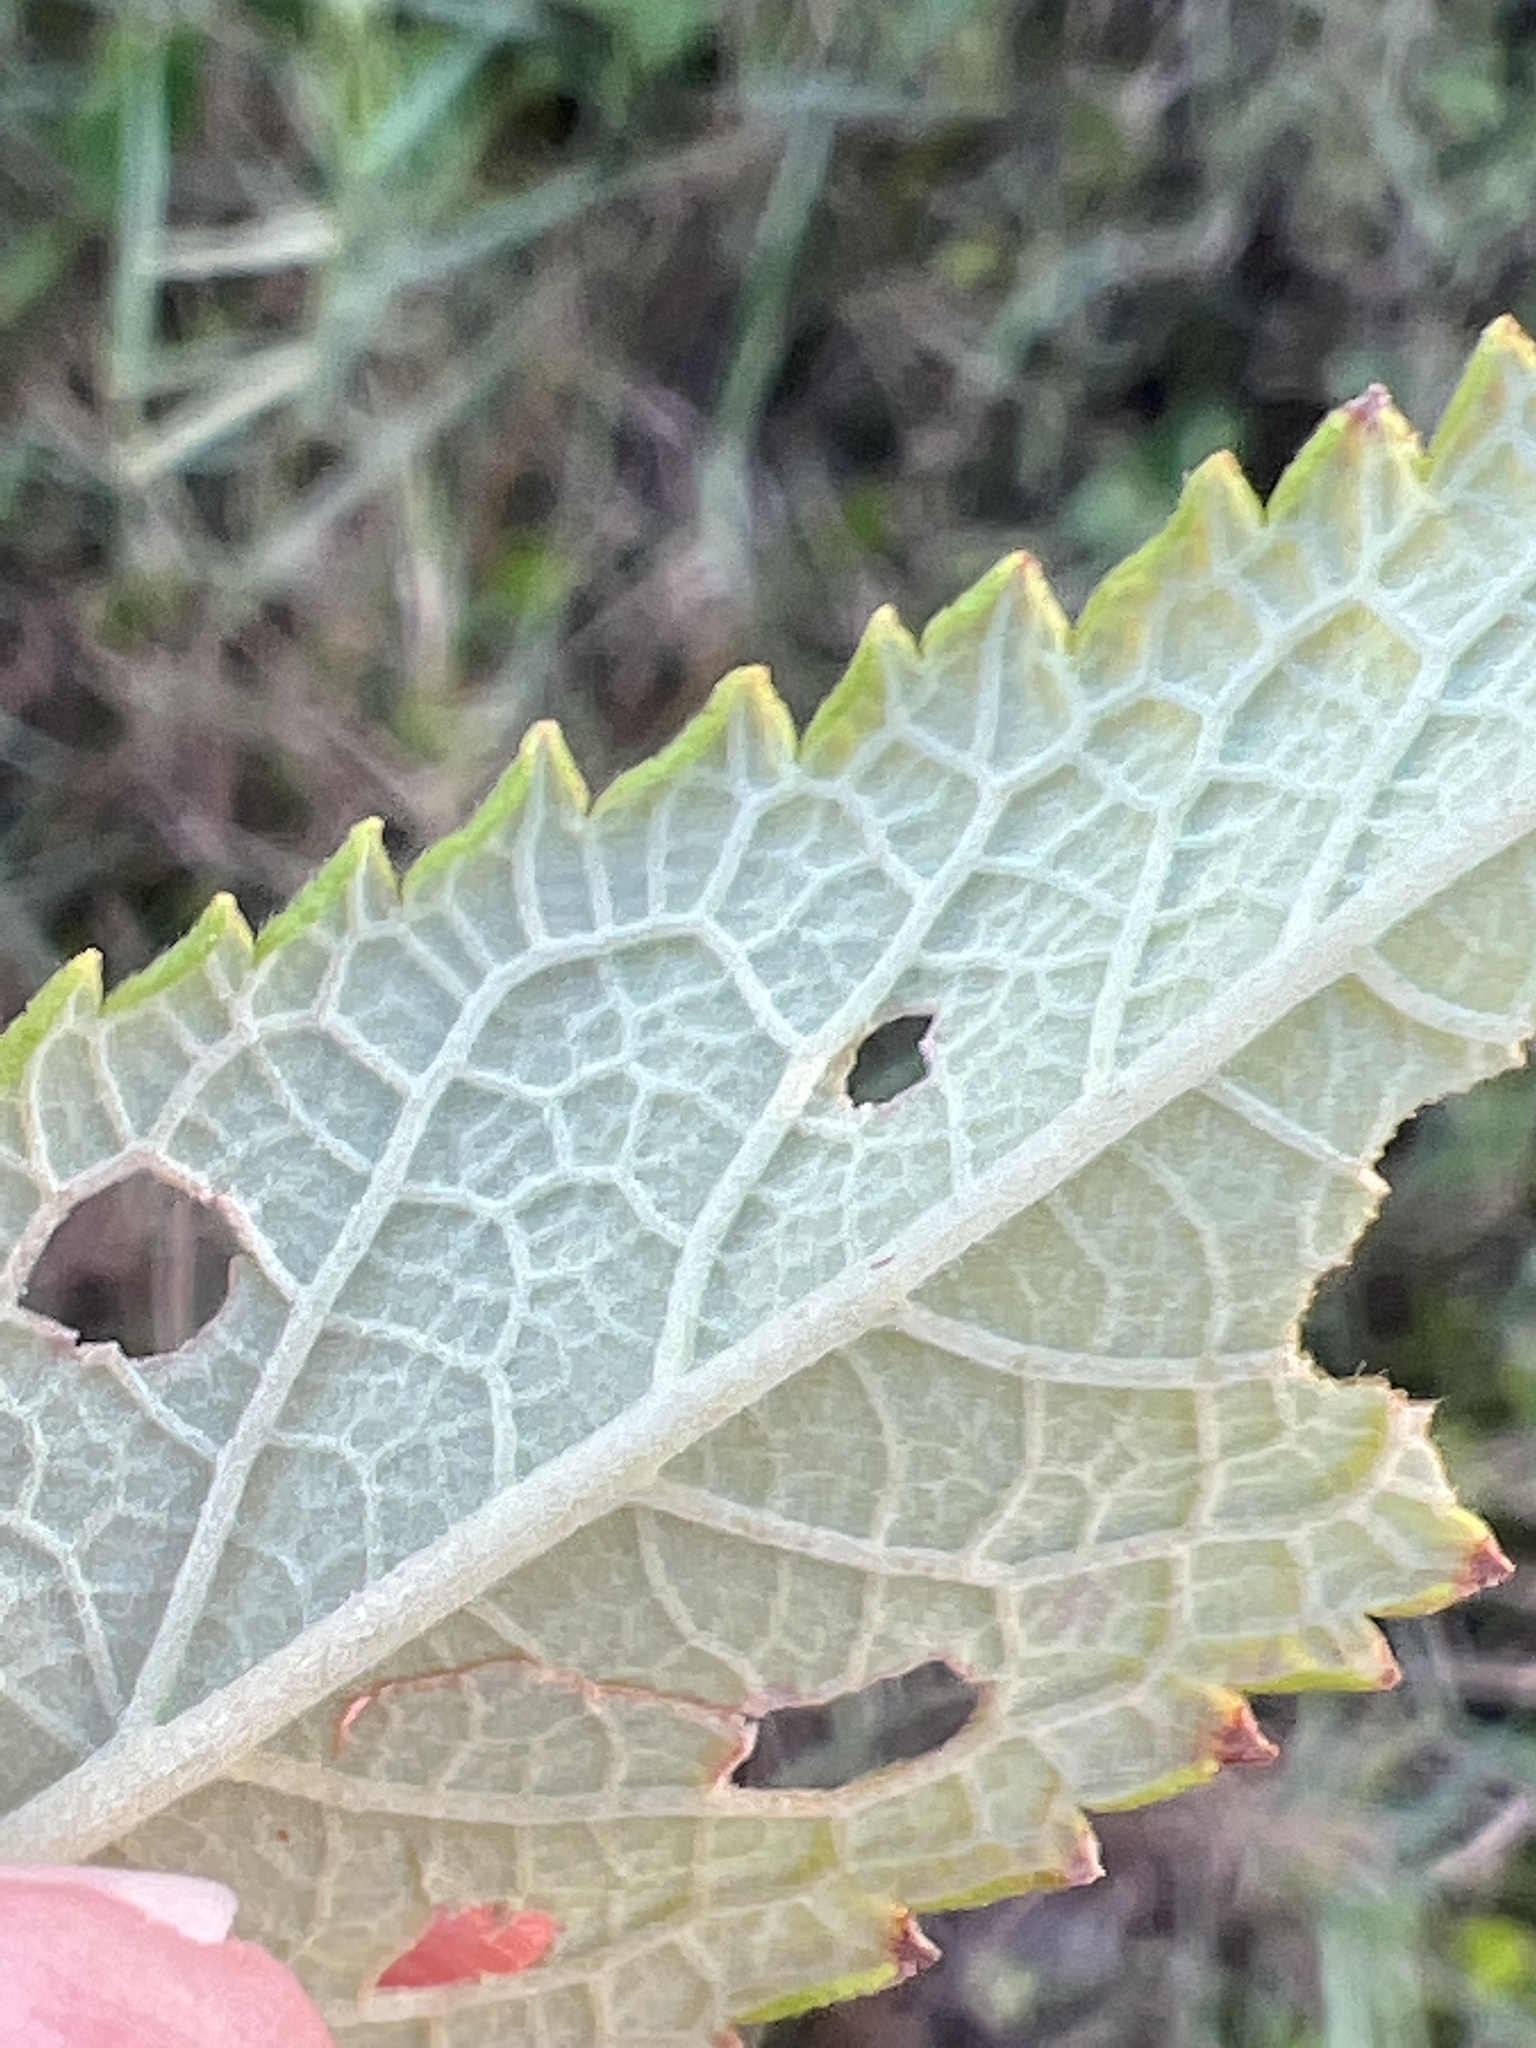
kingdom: Plantae
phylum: Tracheophyta
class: Magnoliopsida
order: Lamiales
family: Lamiaceae
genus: Teucrium
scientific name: Teucrium canadense
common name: American germander
